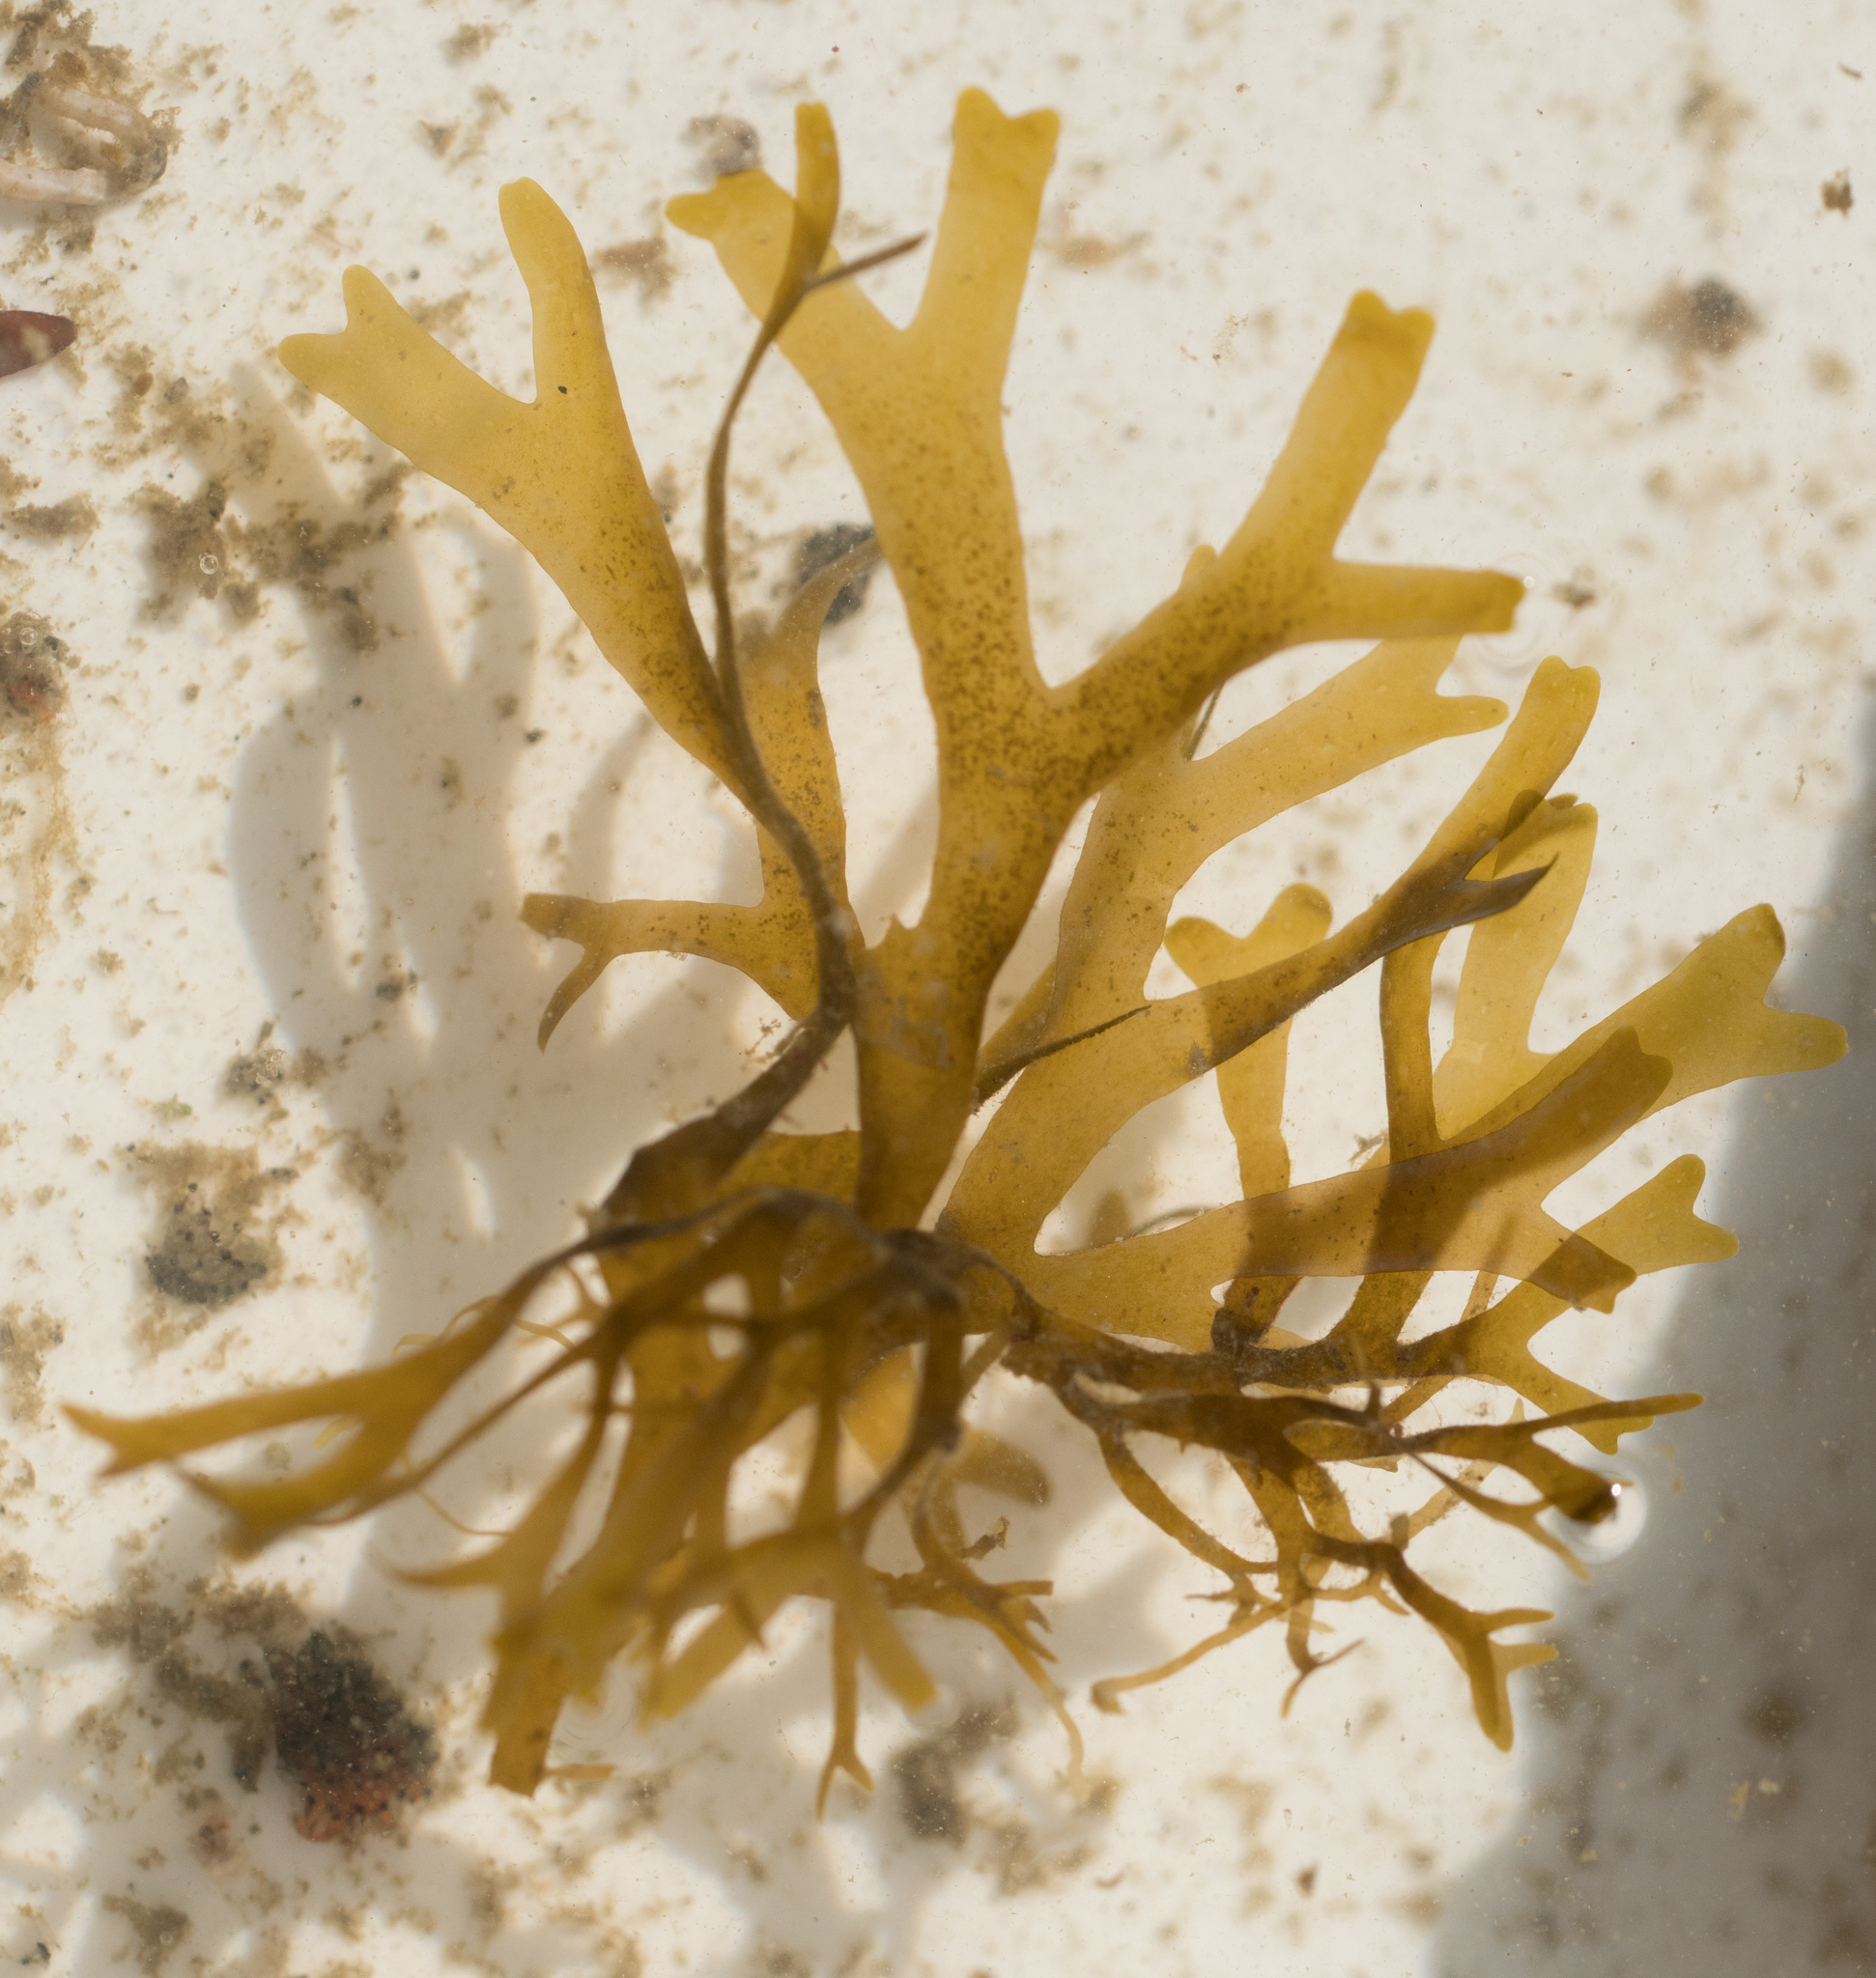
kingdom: Chromista
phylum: Ochrophyta
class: Phaeophyceae
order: Dictyotales
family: Dictyotaceae
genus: Dictyota
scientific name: Dictyota flabellata
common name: Brown algae
